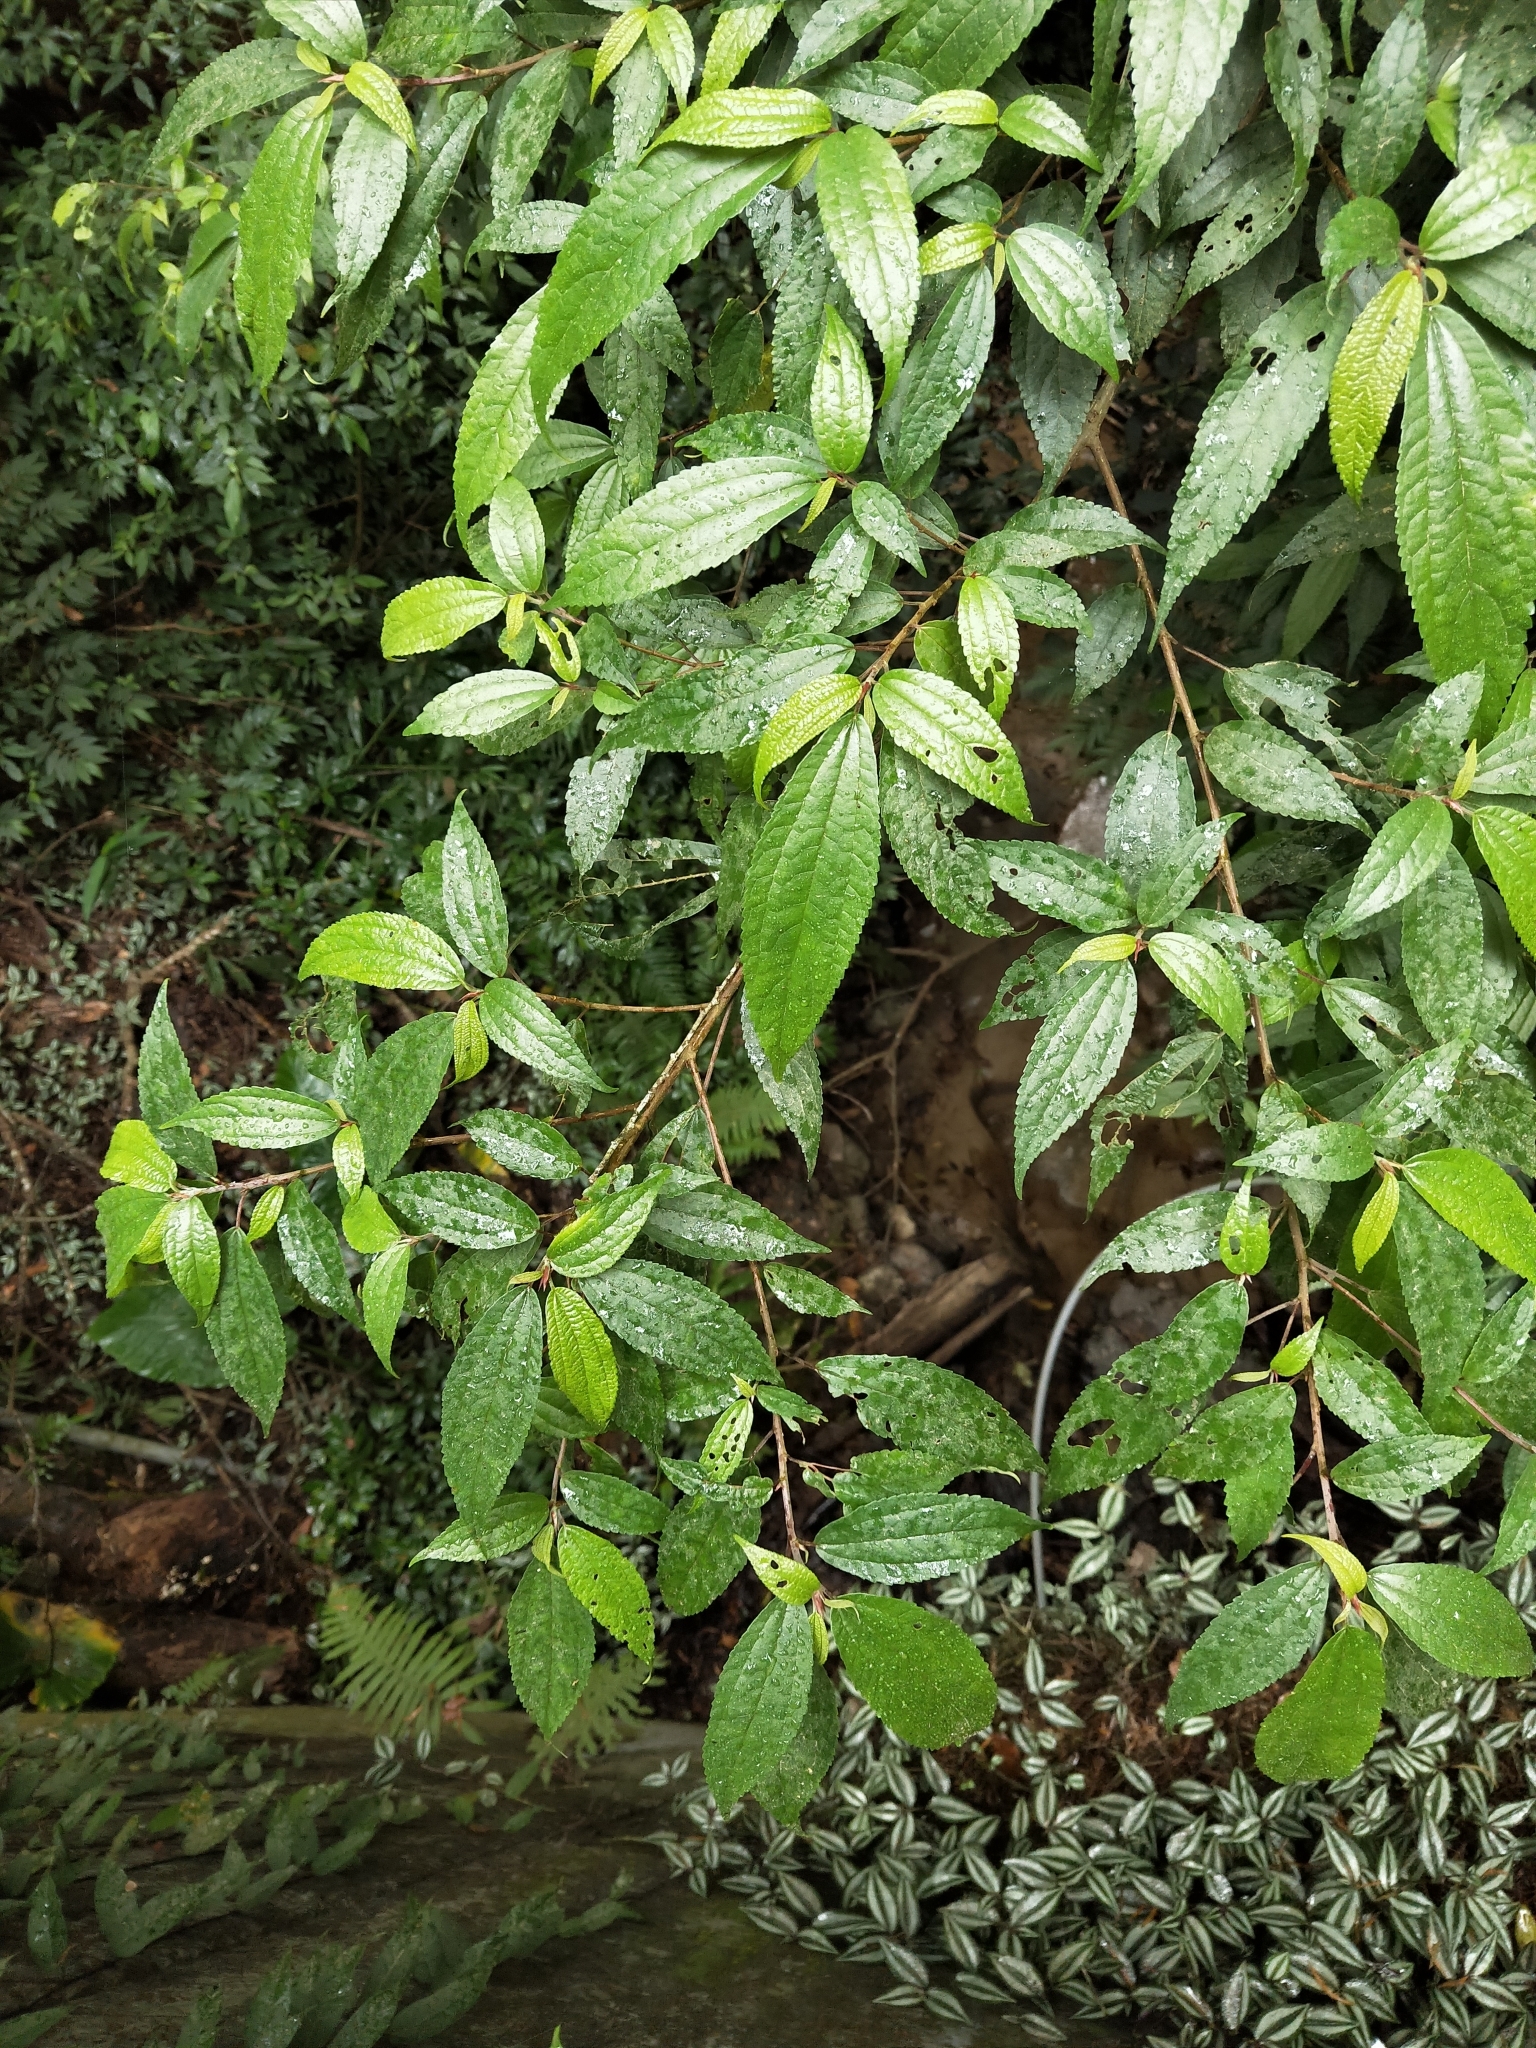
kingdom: Plantae
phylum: Tracheophyta
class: Magnoliopsida
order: Rosales
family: Urticaceae
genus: Oreocnide
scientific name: Oreocnide pedunculata
